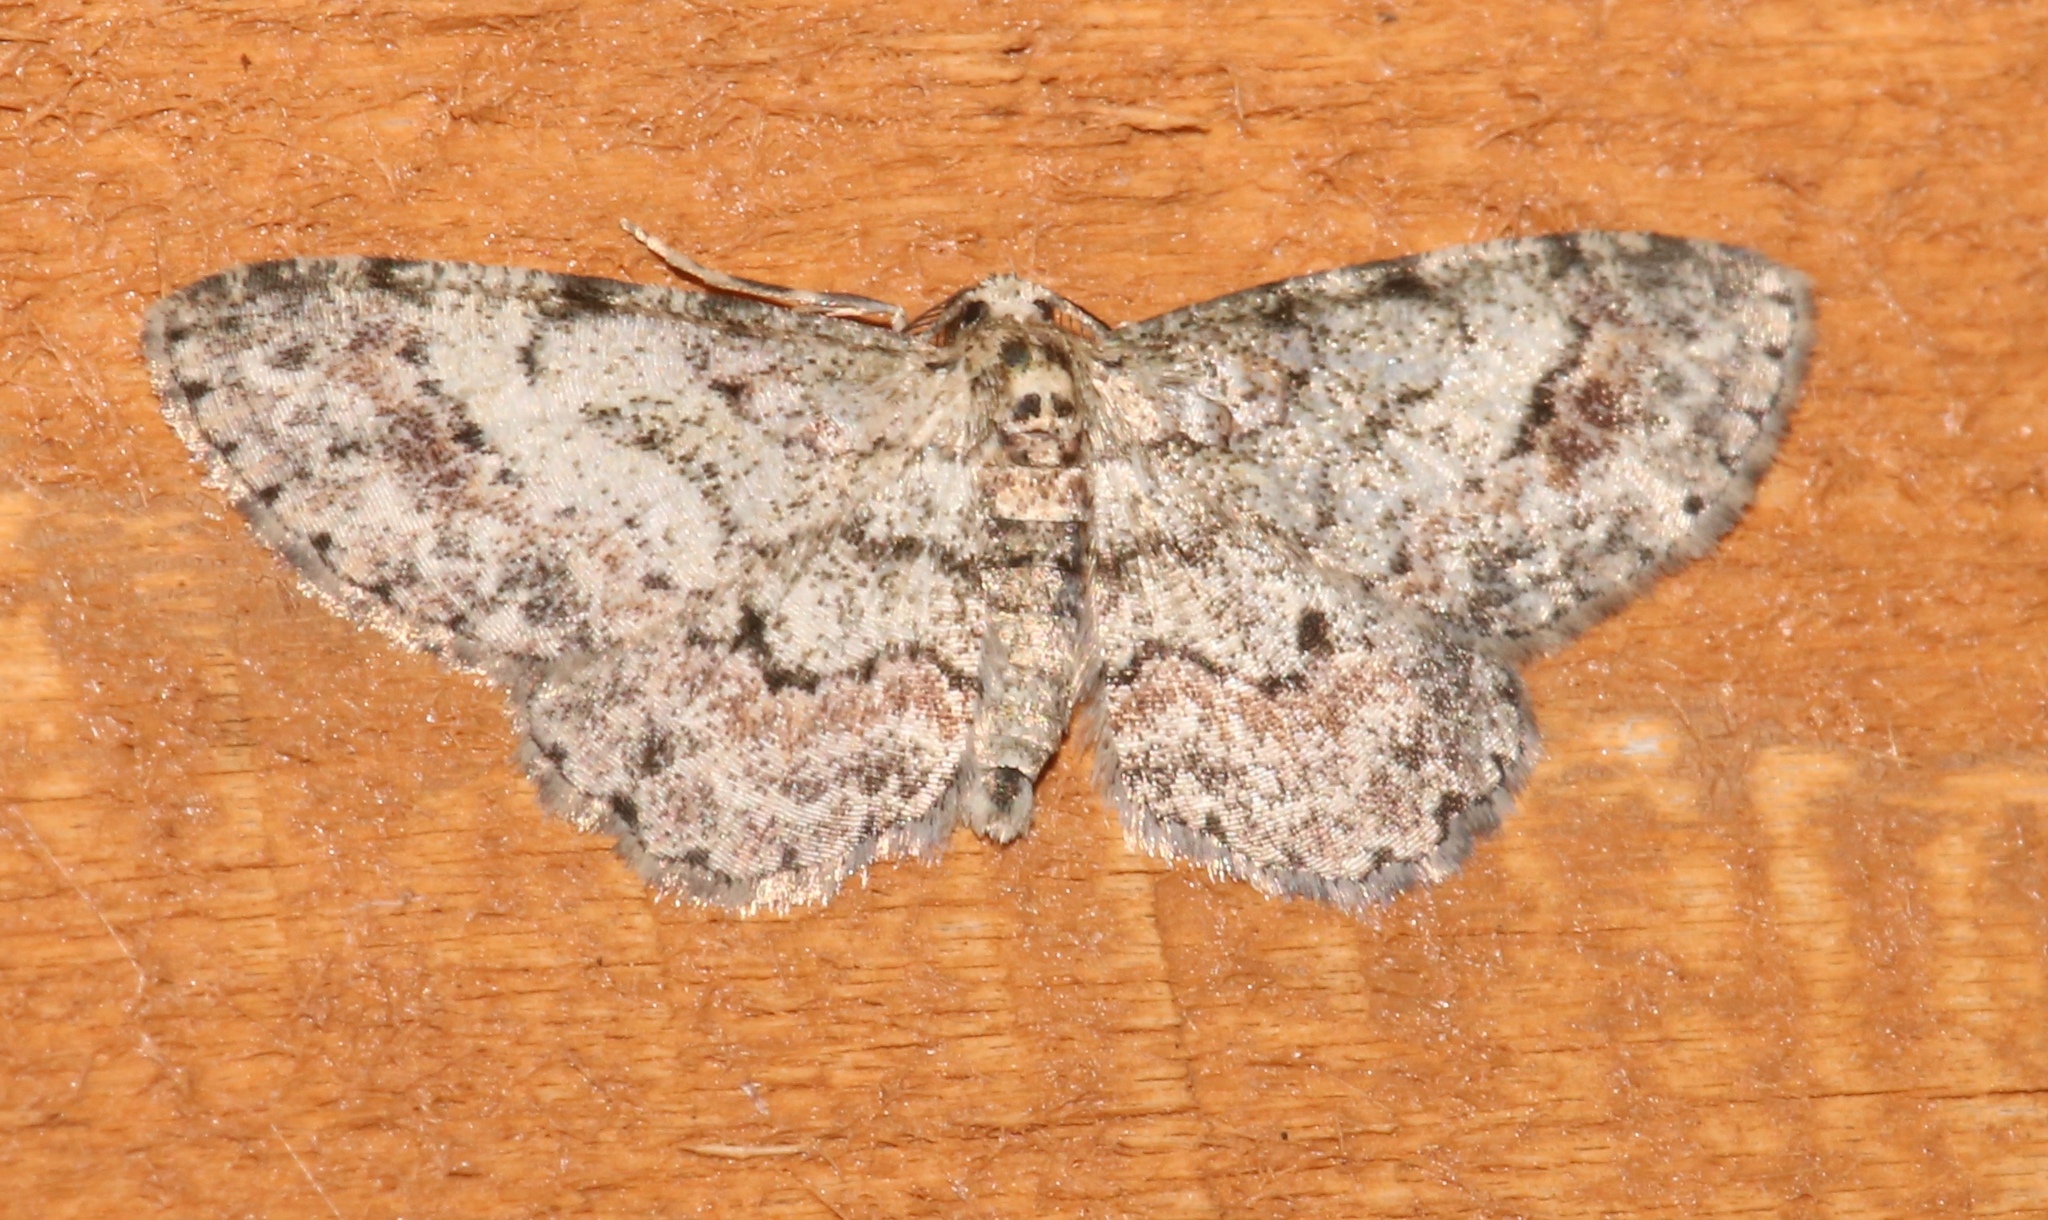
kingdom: Animalia
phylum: Arthropoda
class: Insecta
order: Lepidoptera
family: Geometridae
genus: Glenoides
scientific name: Glenoides texanaria
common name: Texas gray
